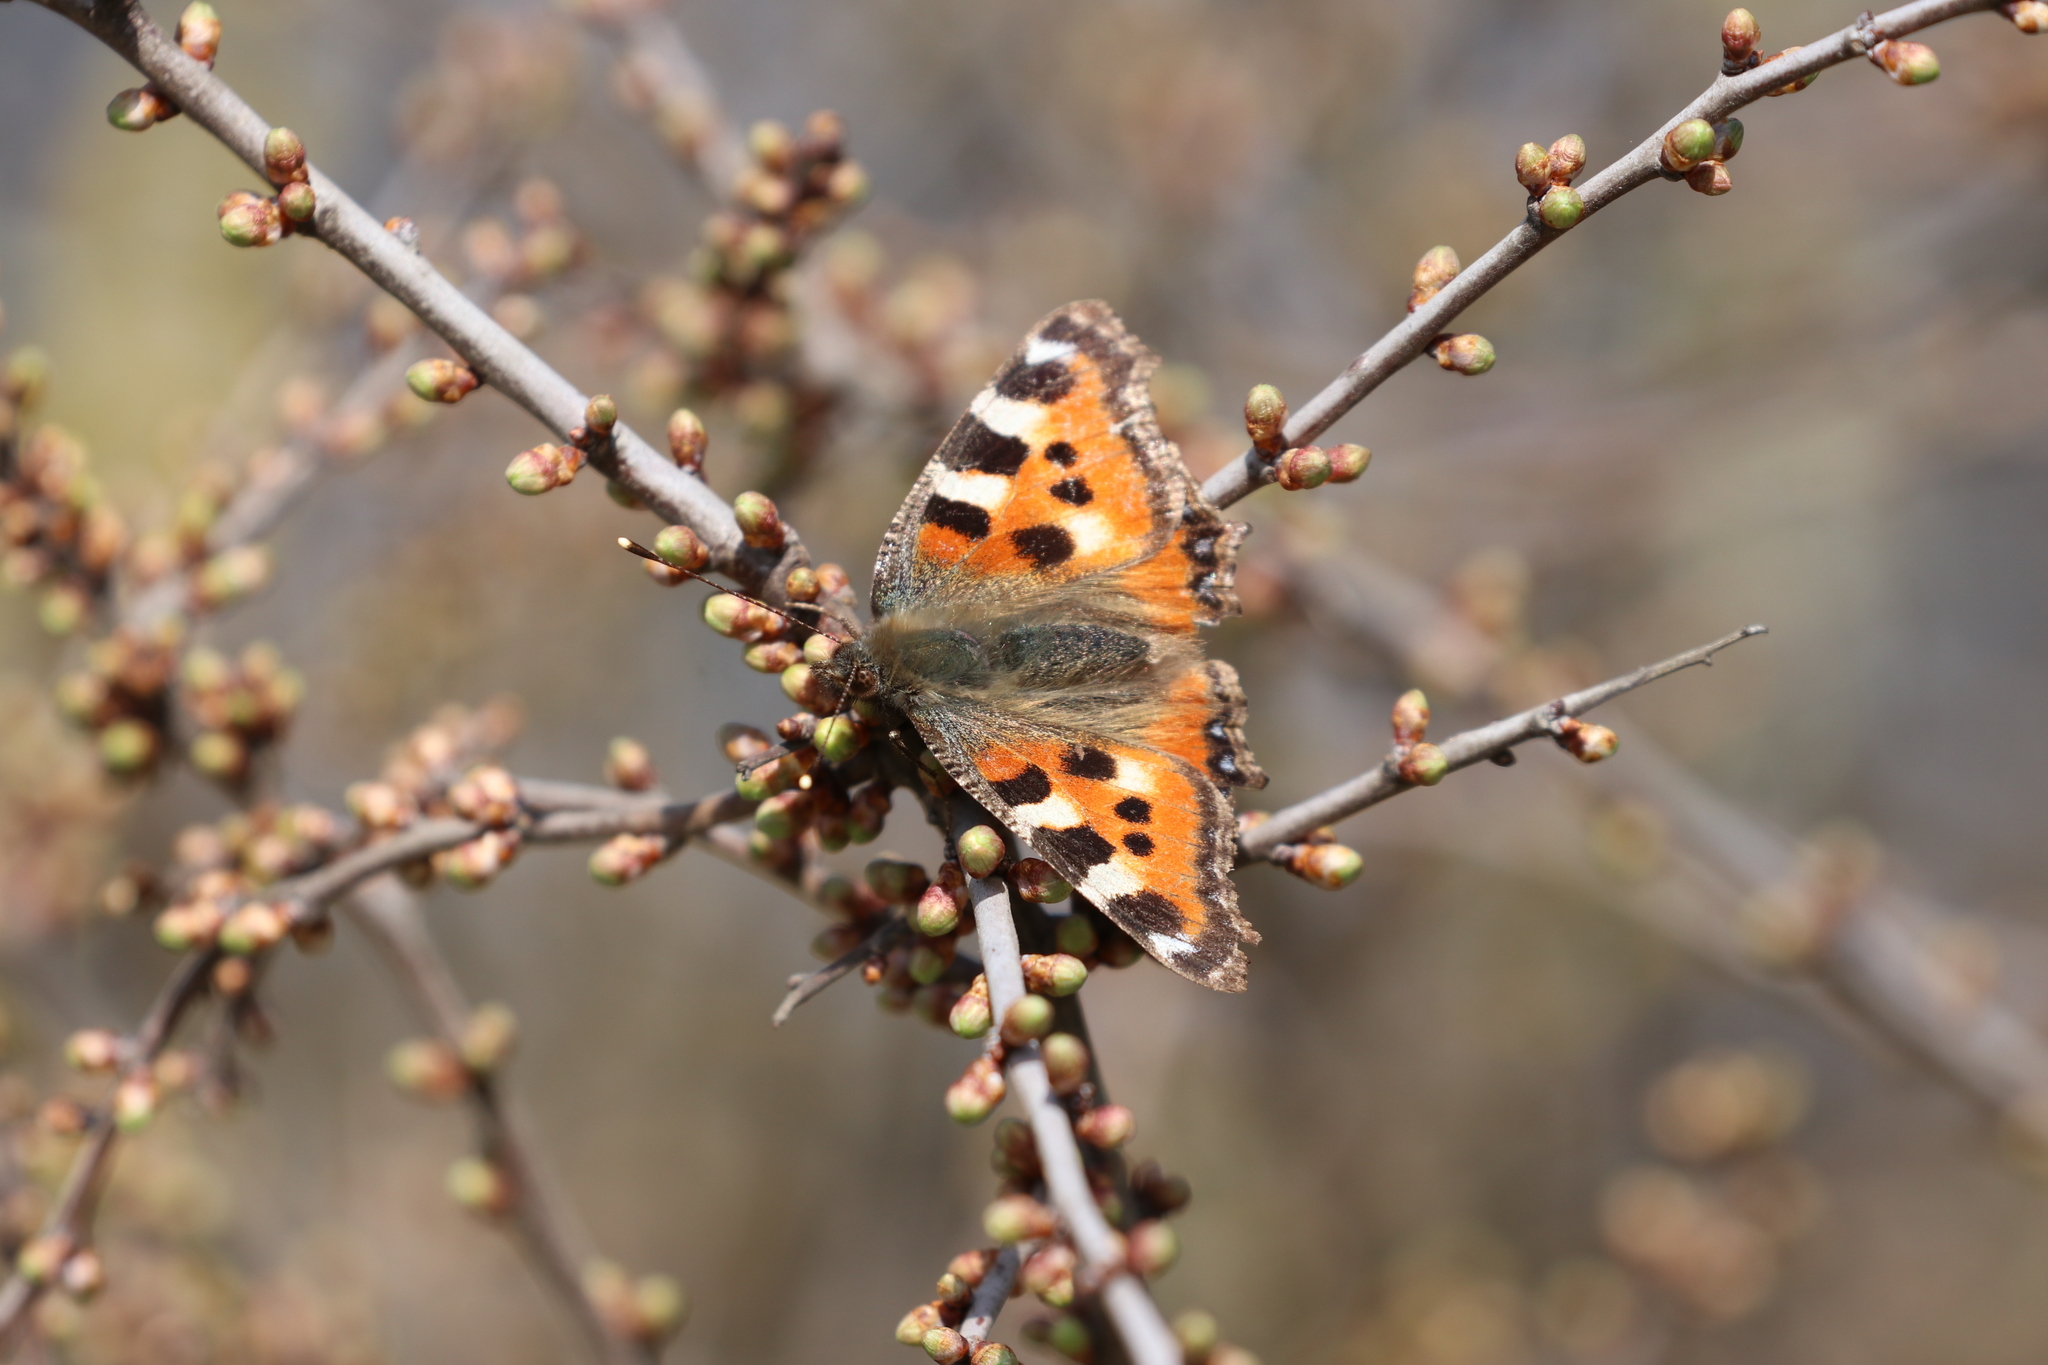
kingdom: Animalia
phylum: Arthropoda
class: Insecta
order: Lepidoptera
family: Nymphalidae
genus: Aglais
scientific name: Aglais urticae
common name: Small tortoiseshell
